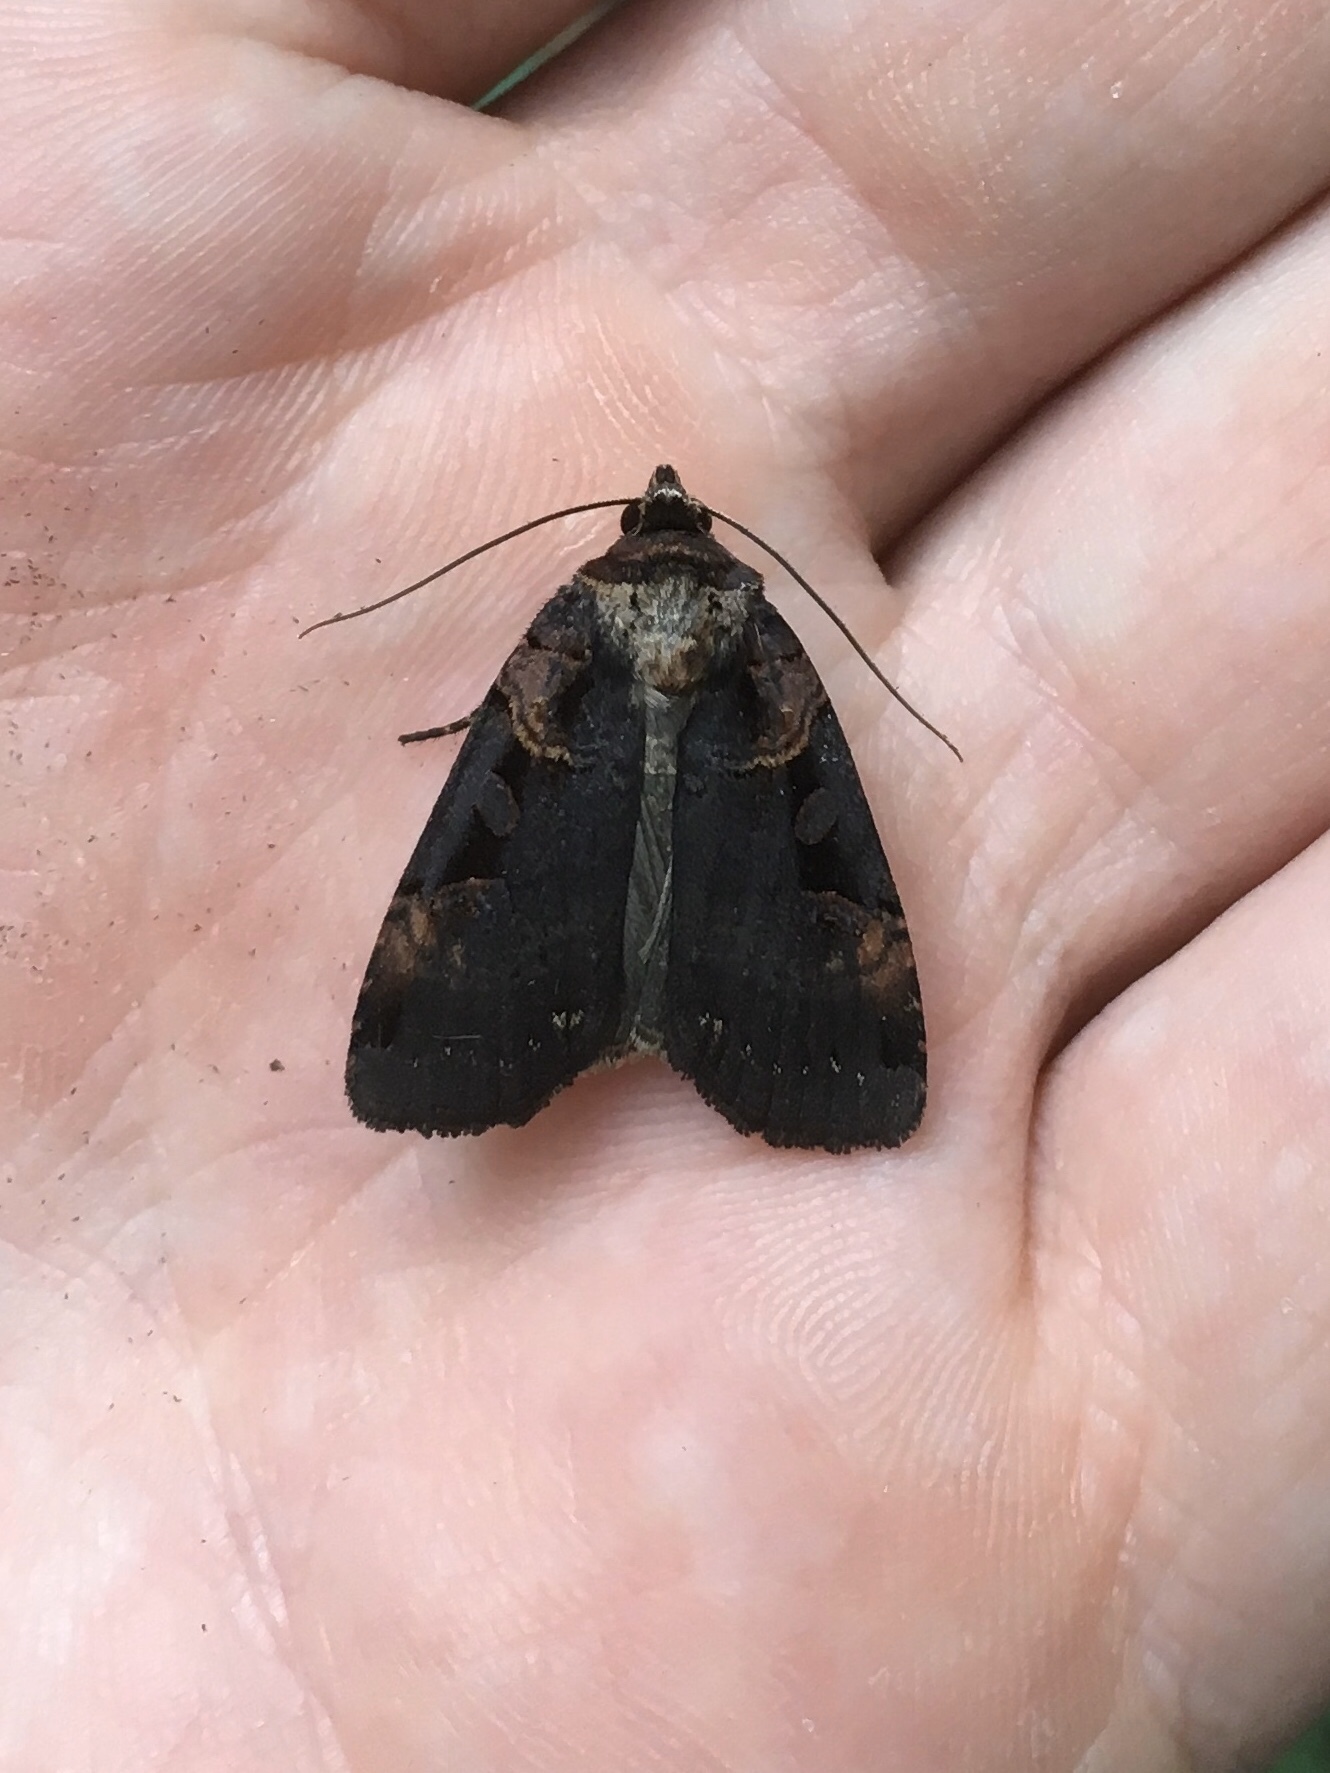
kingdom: Animalia
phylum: Arthropoda
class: Insecta
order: Lepidoptera
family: Noctuidae
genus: Pseudohermonassa
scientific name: Pseudohermonassa bicarnea
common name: Pink spotted dart
